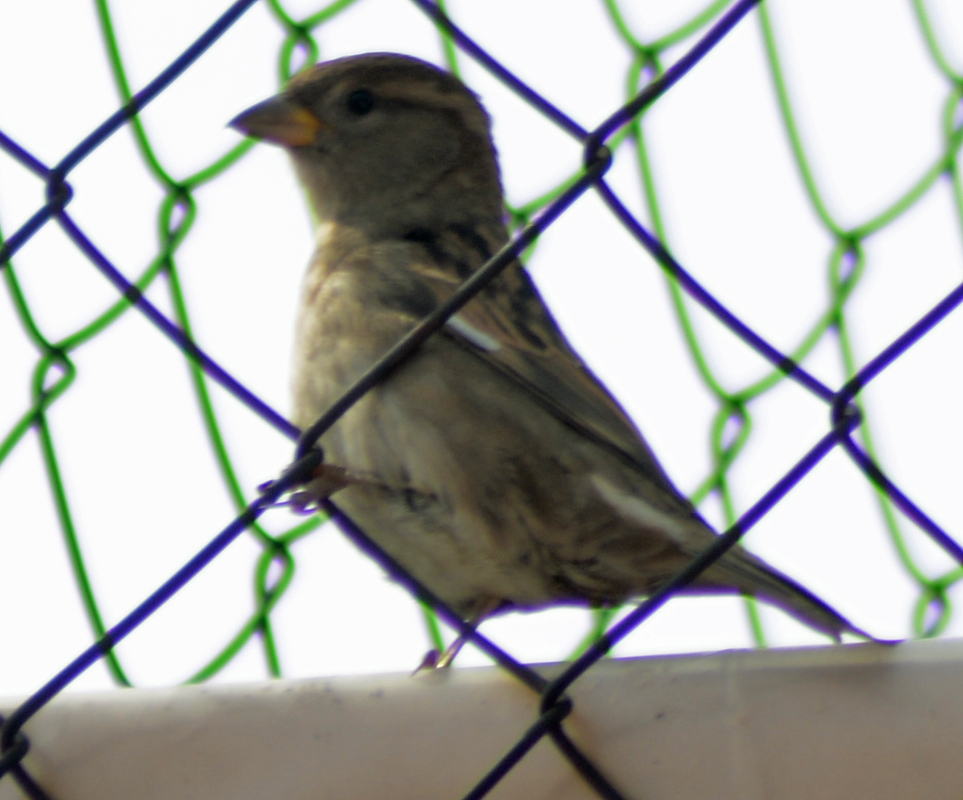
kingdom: Animalia
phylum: Chordata
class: Aves
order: Passeriformes
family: Passeridae
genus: Passer
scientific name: Passer domesticus
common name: House sparrow
